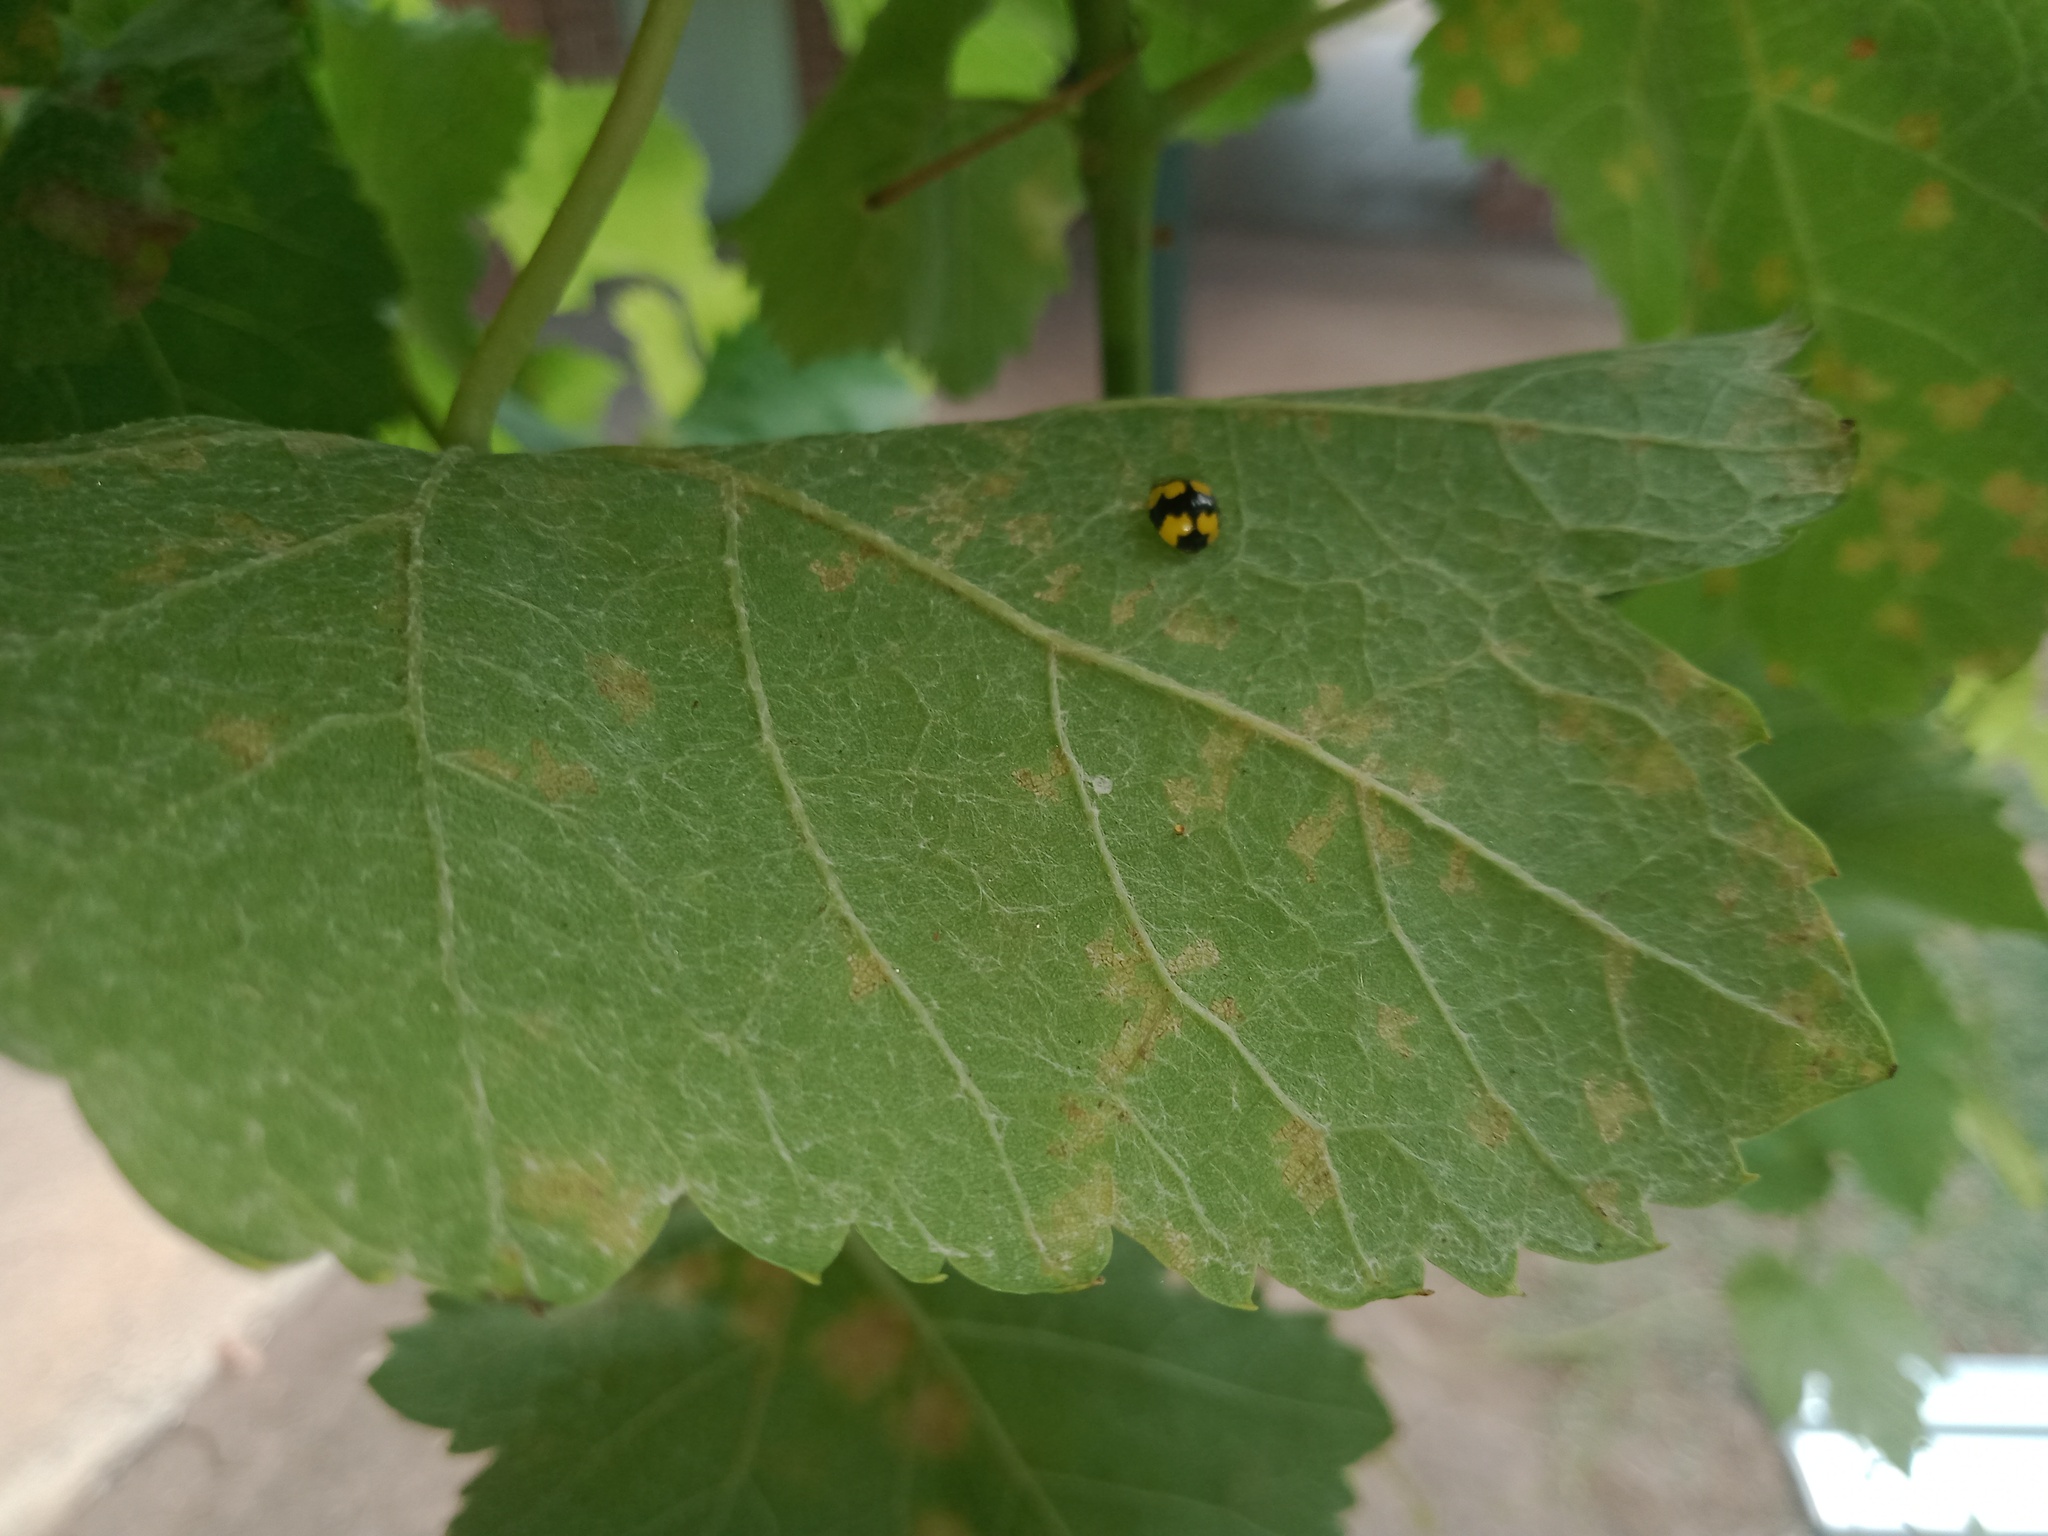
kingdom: Animalia
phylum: Arthropoda
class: Insecta
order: Coleoptera
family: Coccinellidae
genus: Illeis
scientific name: Illeis galbula
